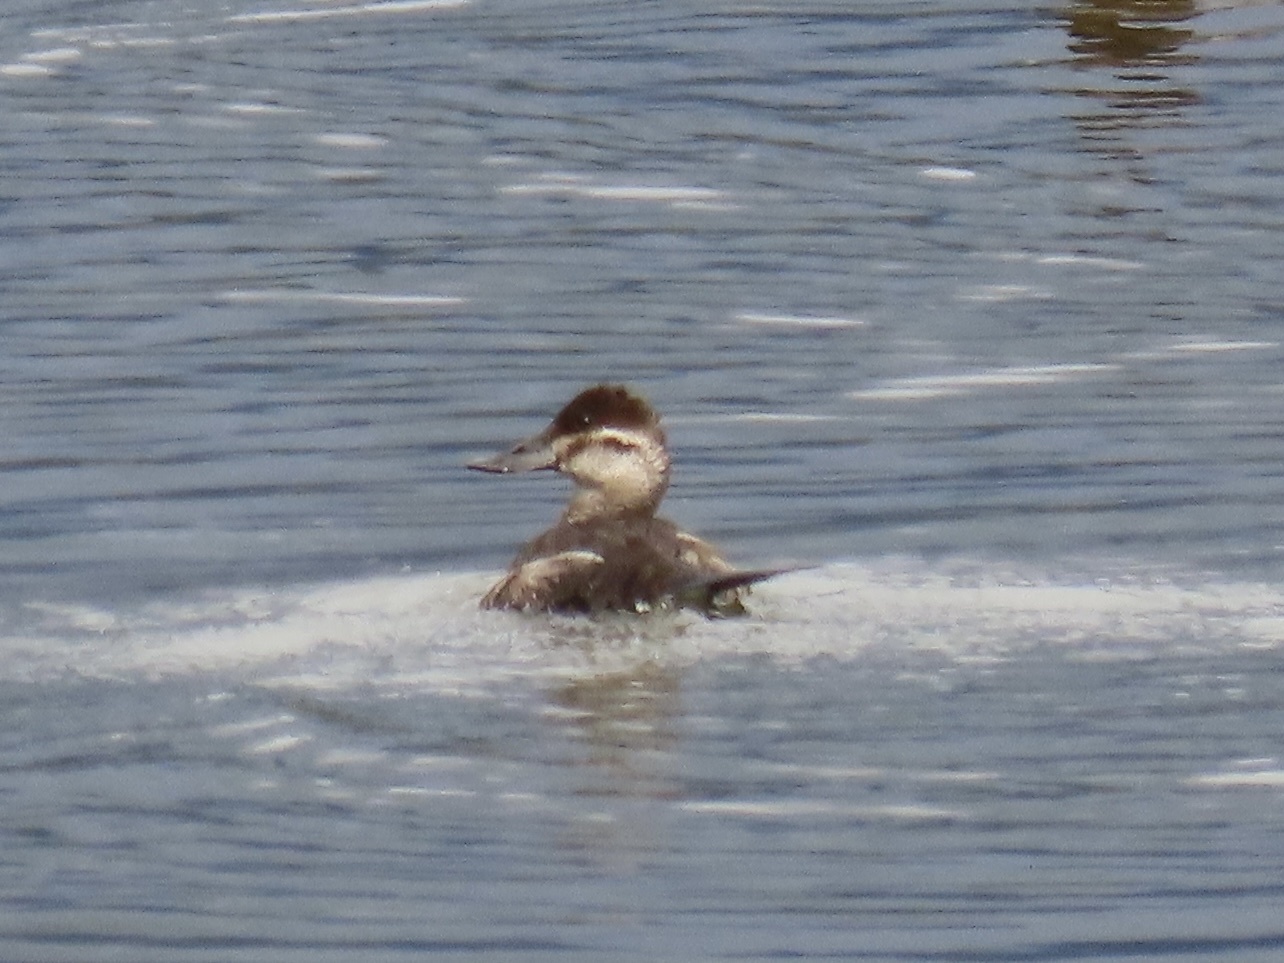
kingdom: Animalia
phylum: Chordata
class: Aves
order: Anseriformes
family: Anatidae
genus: Oxyura
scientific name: Oxyura jamaicensis
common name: Ruddy duck
